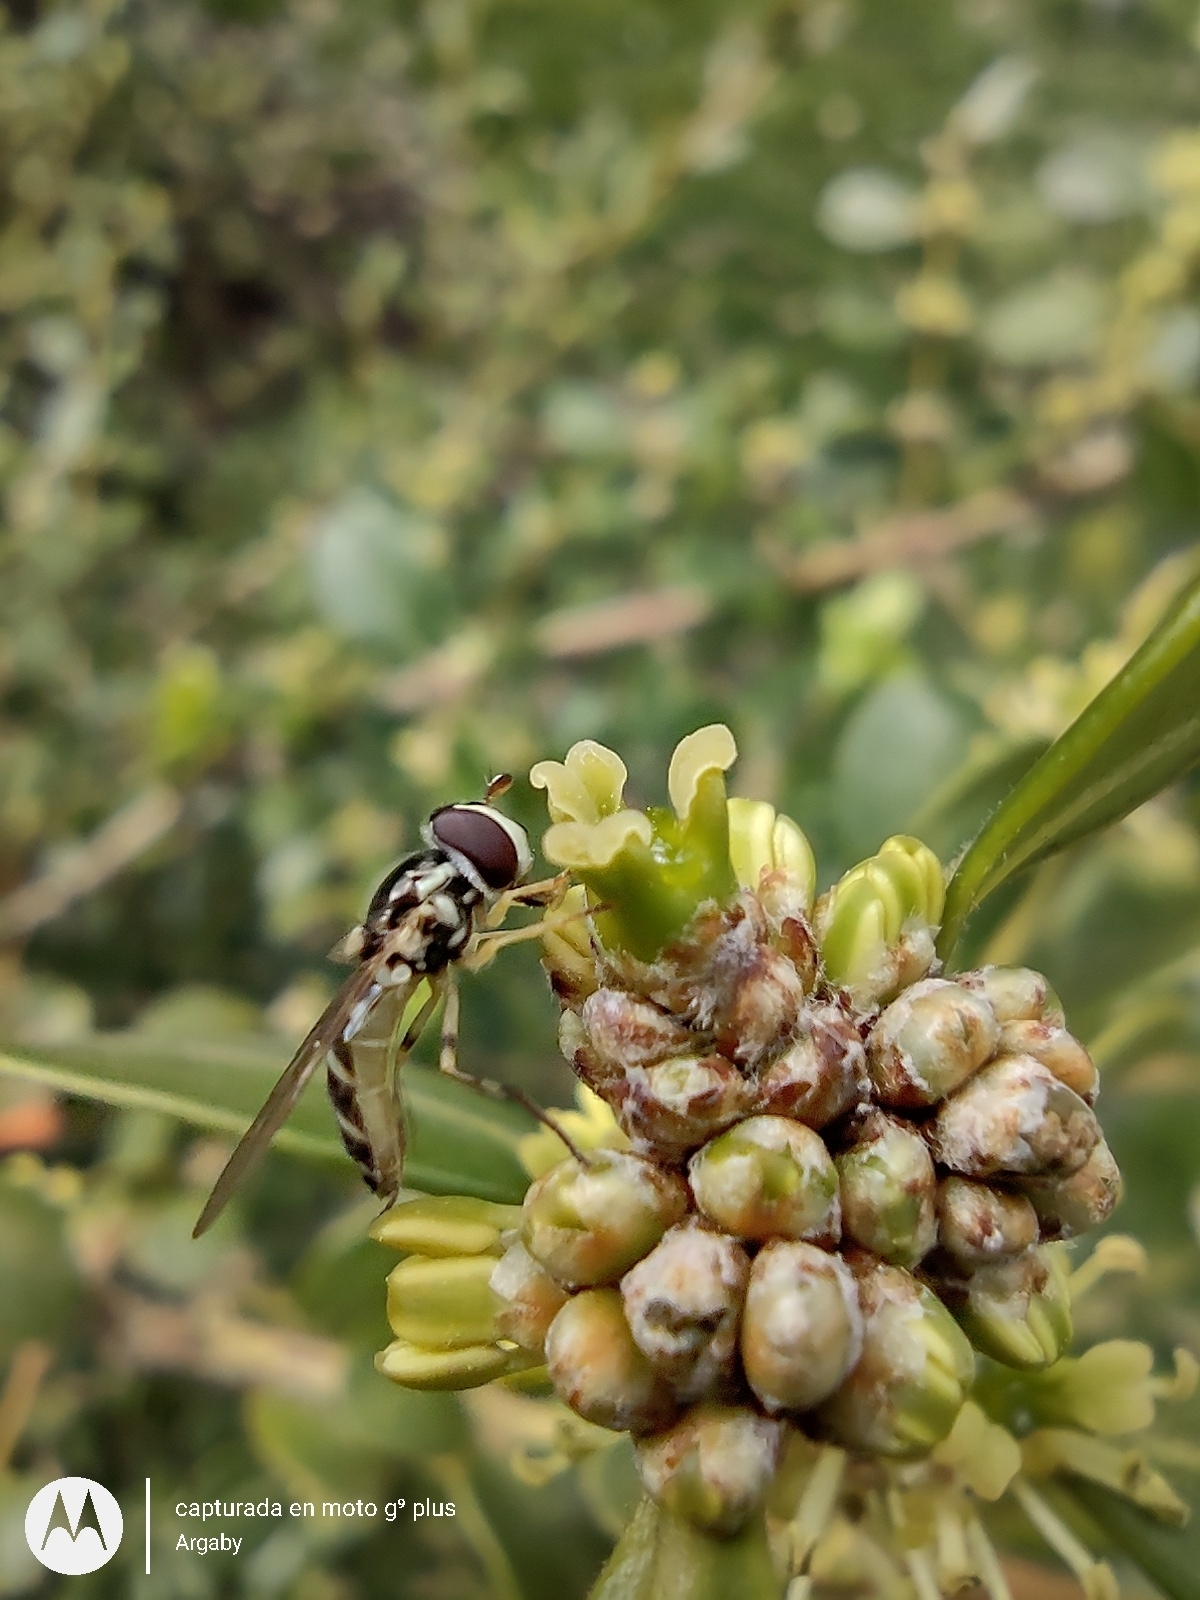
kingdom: Animalia
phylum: Arthropoda
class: Insecta
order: Diptera
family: Syrphidae
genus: Allograpta
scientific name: Allograpta exotica
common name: Syrphid fly
